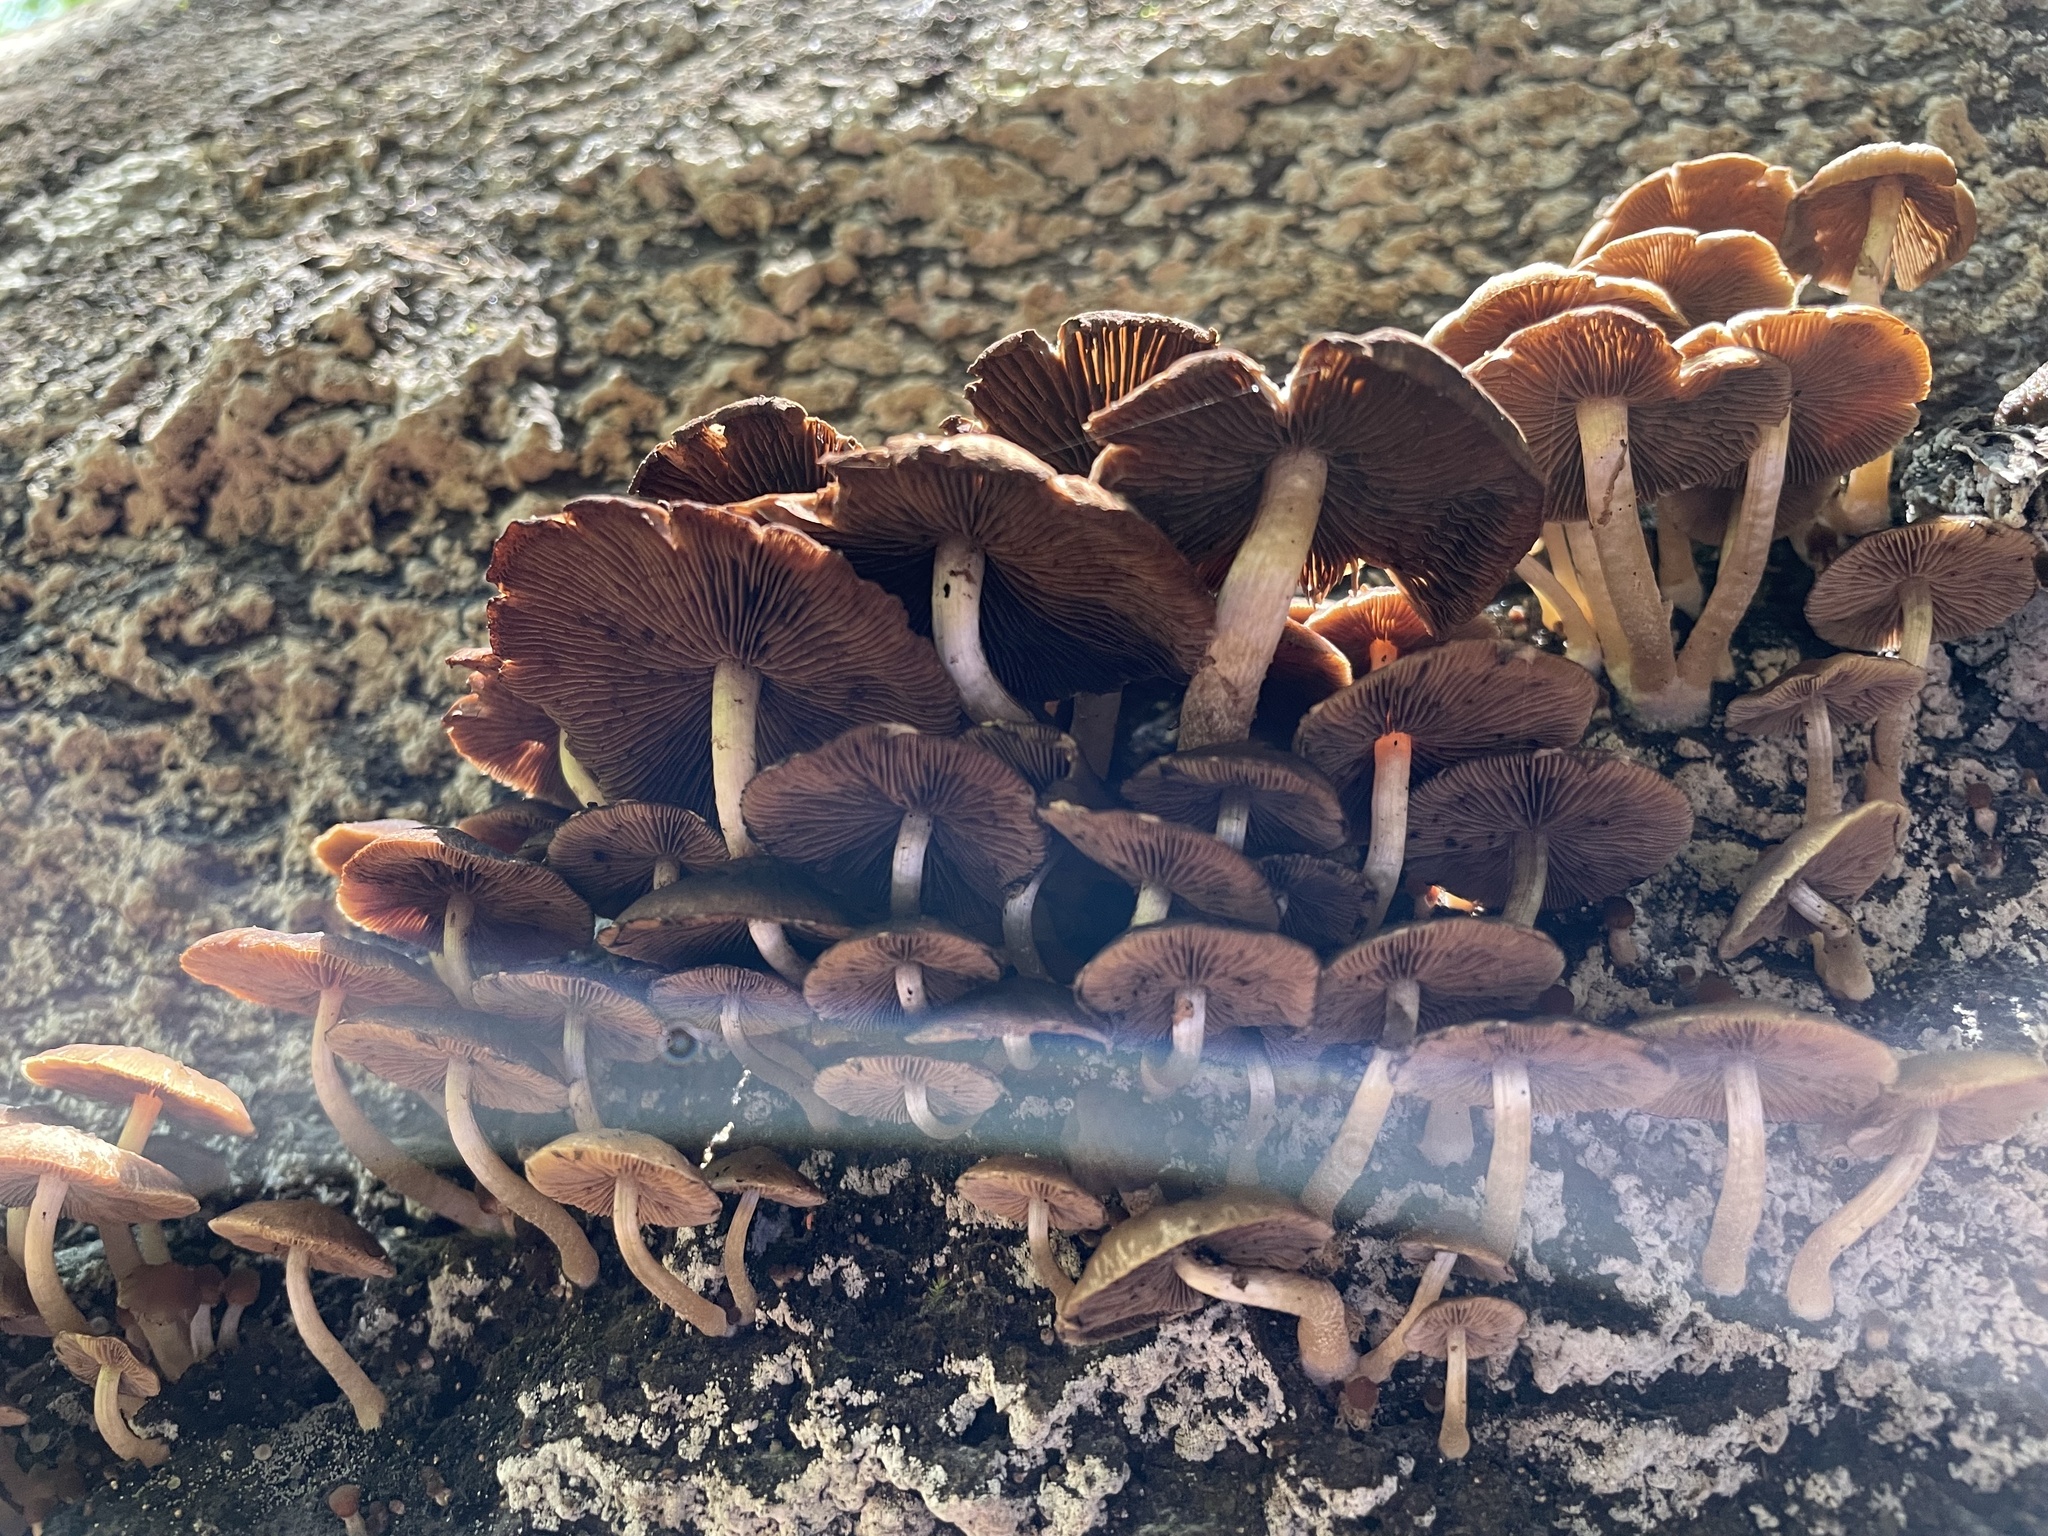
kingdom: Fungi
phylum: Basidiomycota
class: Agaricomycetes
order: Agaricales
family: Psathyrellaceae
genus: Psathyrella
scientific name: Psathyrella piluliformis
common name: Common stump brittlestem
